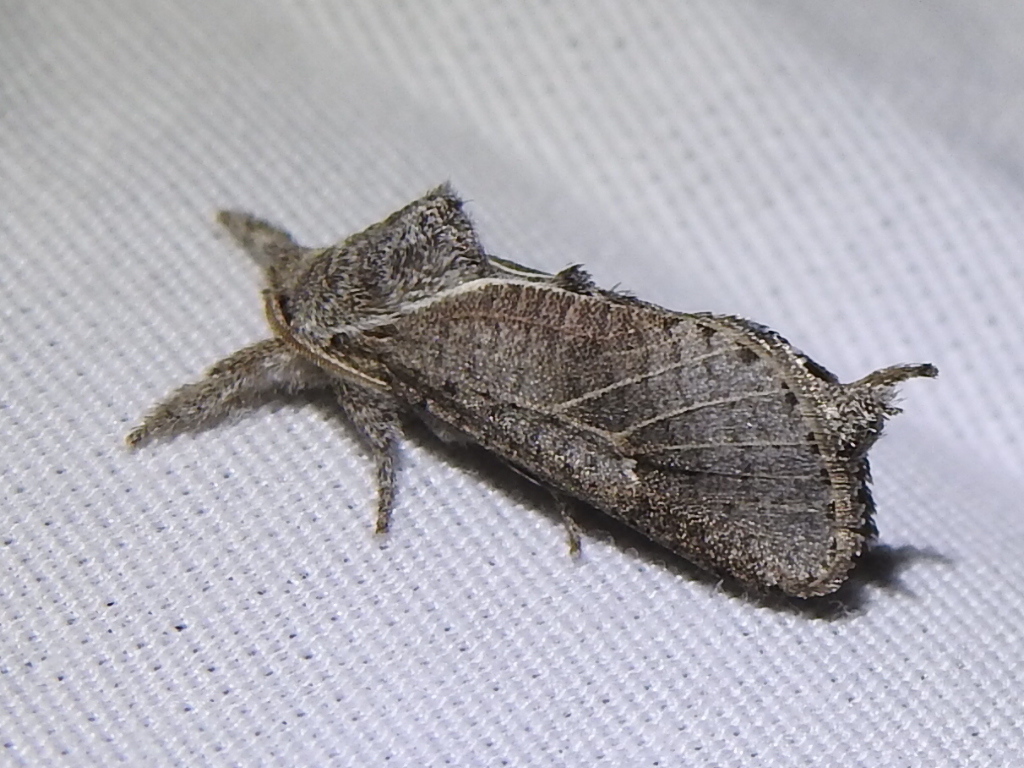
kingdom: Animalia
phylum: Arthropoda
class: Insecta
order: Lepidoptera
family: Cossidae
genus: Givira
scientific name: Givira anna
